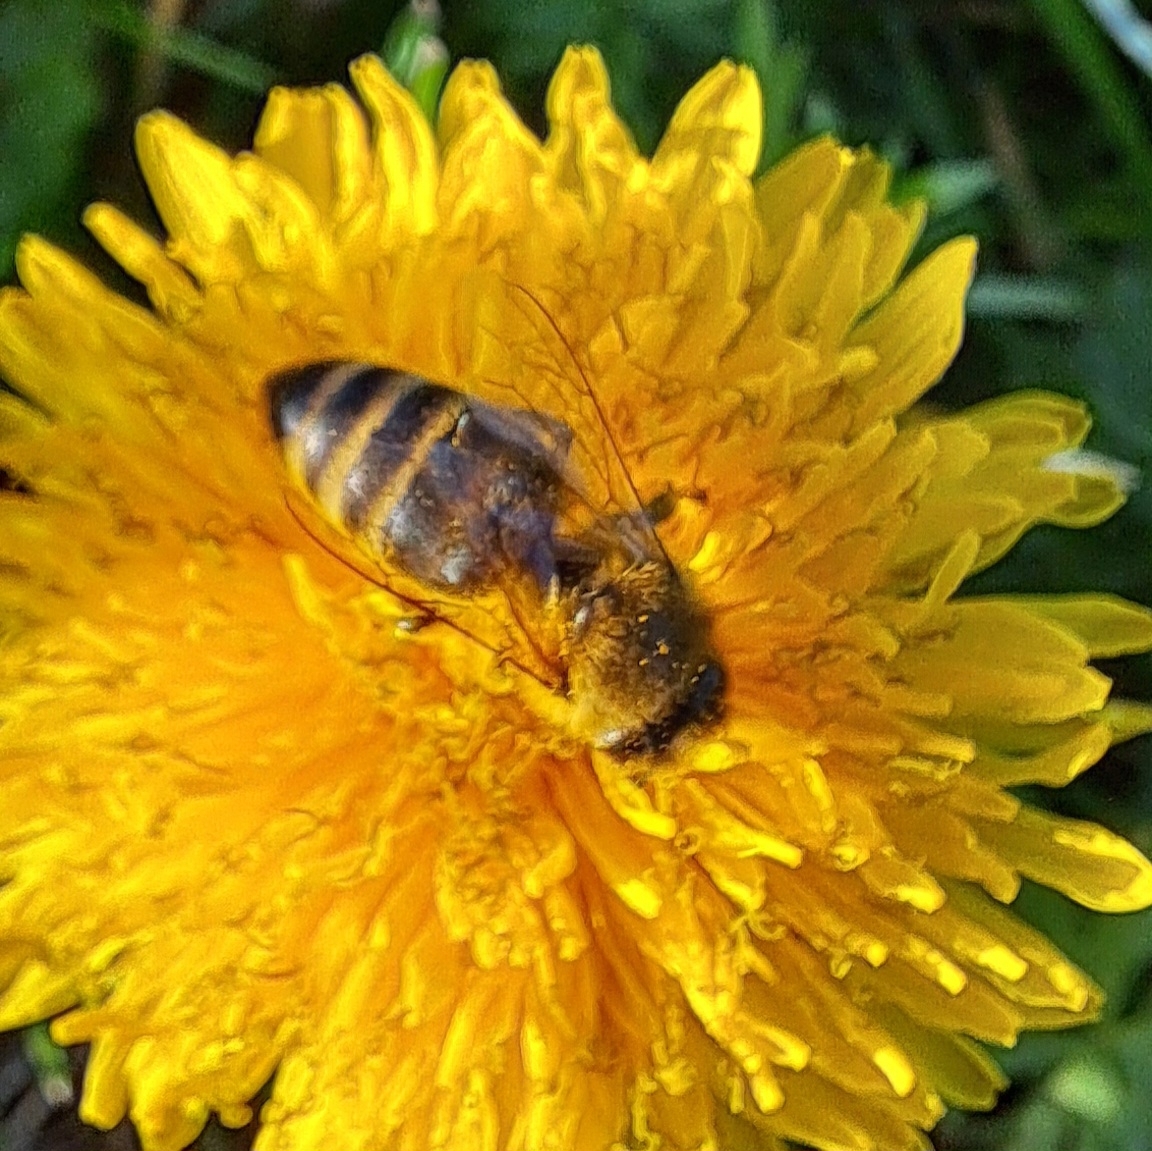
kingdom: Animalia
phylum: Arthropoda
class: Insecta
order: Hymenoptera
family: Apidae
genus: Apis
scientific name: Apis mellifera
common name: Honey bee
